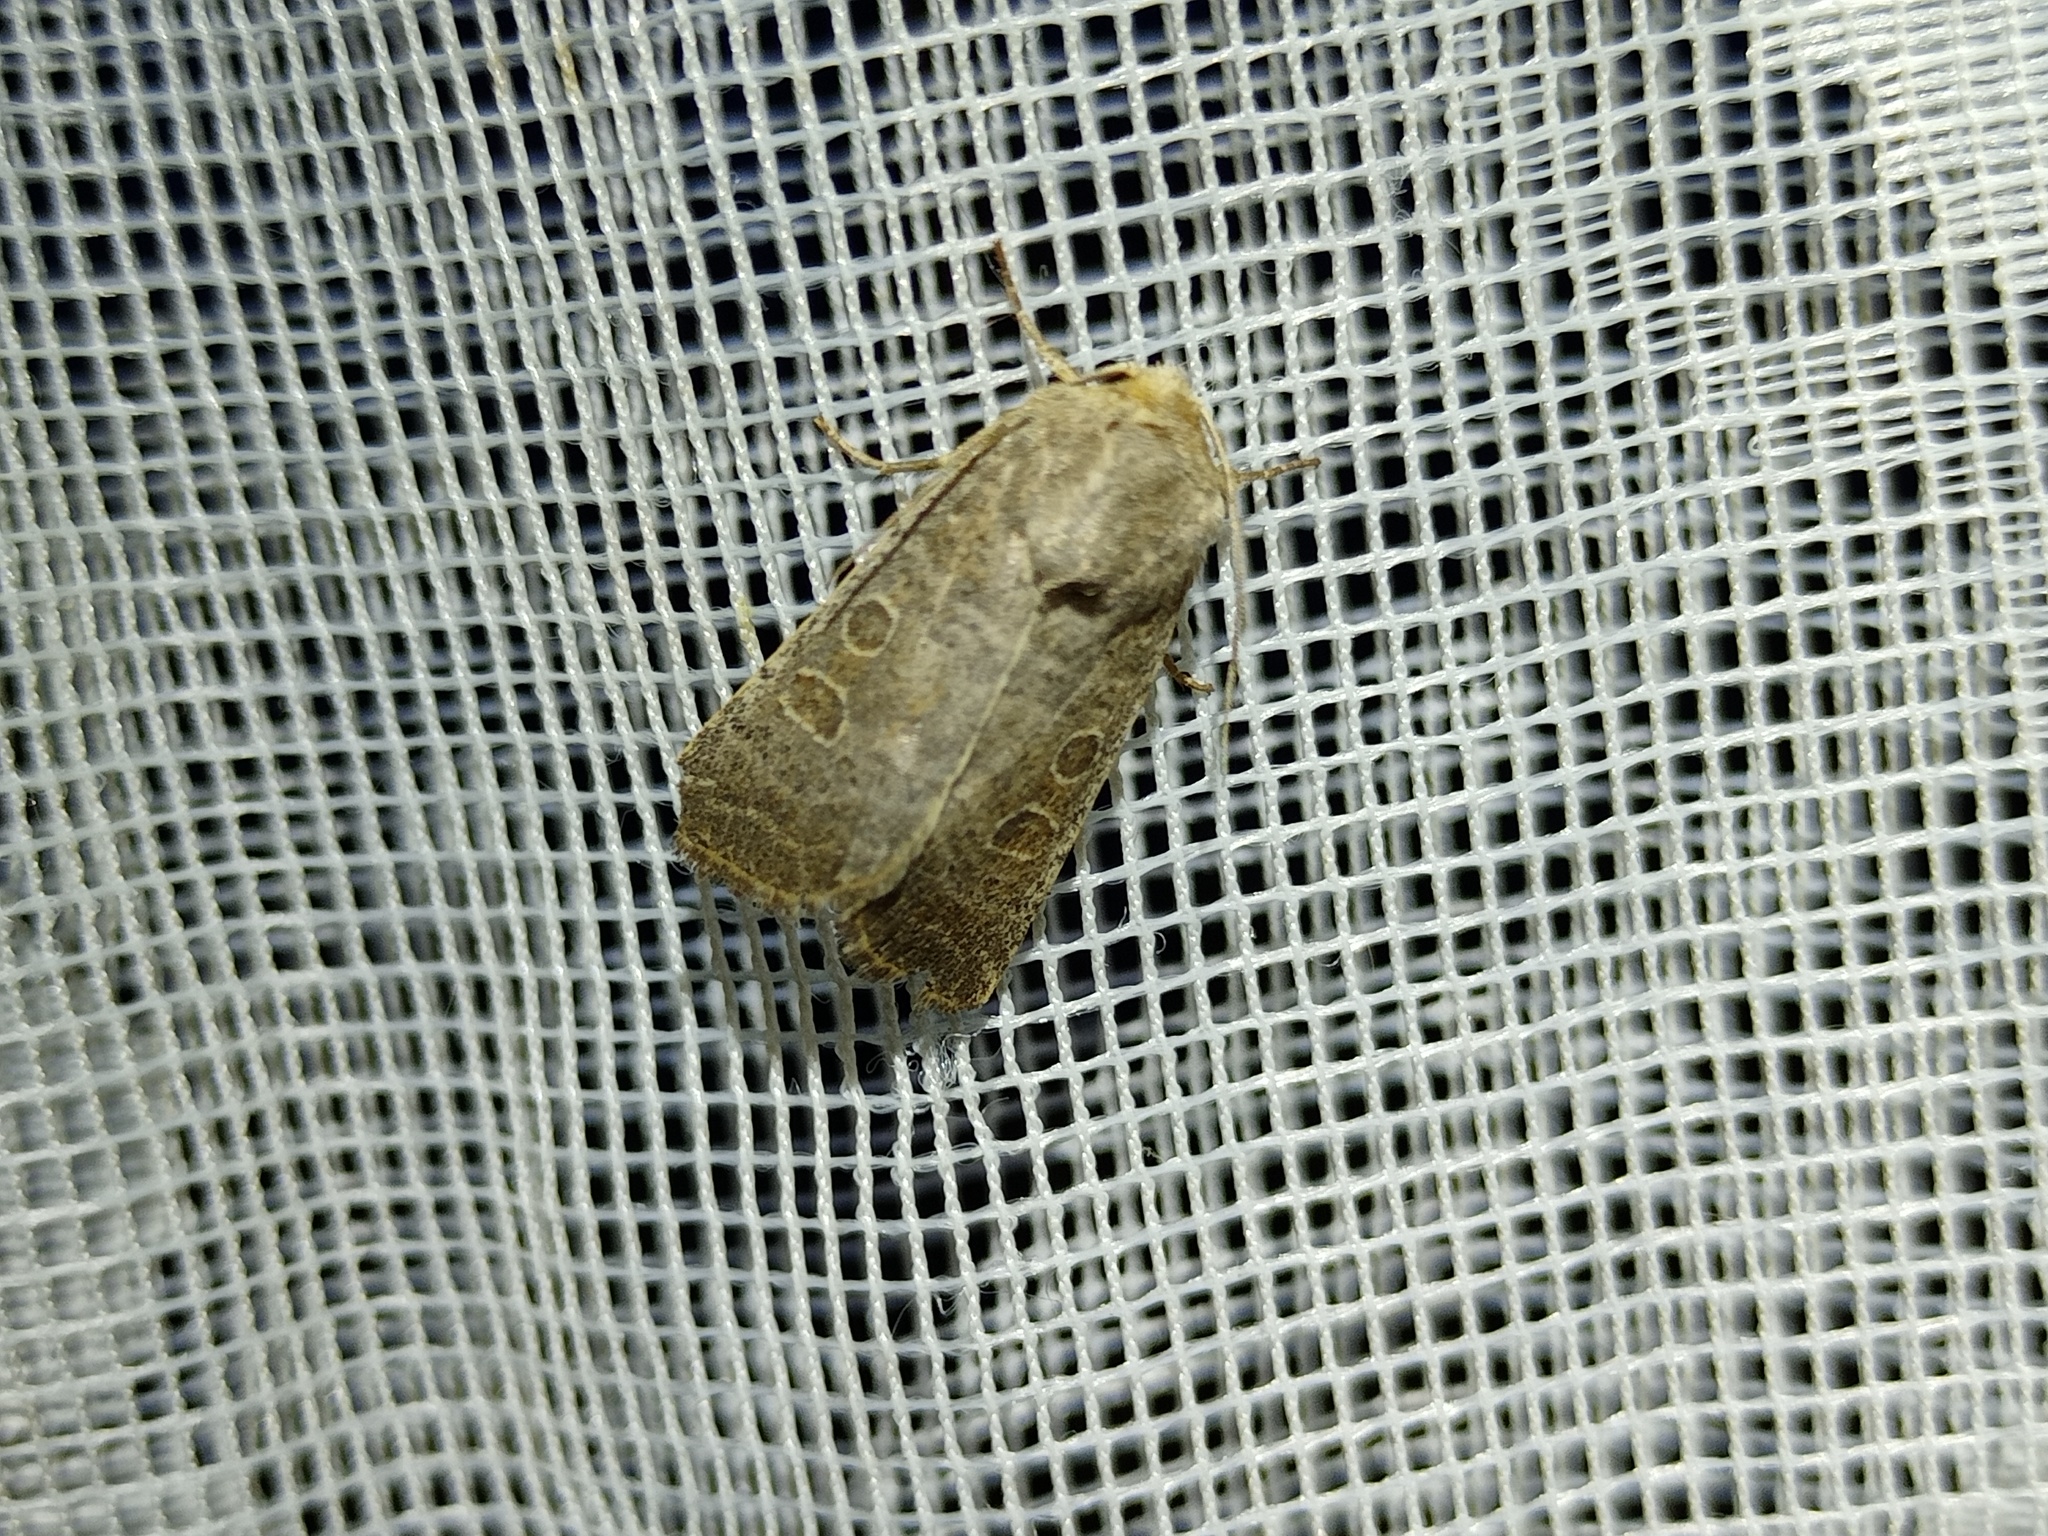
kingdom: Animalia
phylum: Arthropoda
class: Insecta
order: Lepidoptera
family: Noctuidae
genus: Hoplodrina
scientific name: Hoplodrina ambigua
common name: Vine's rustic
